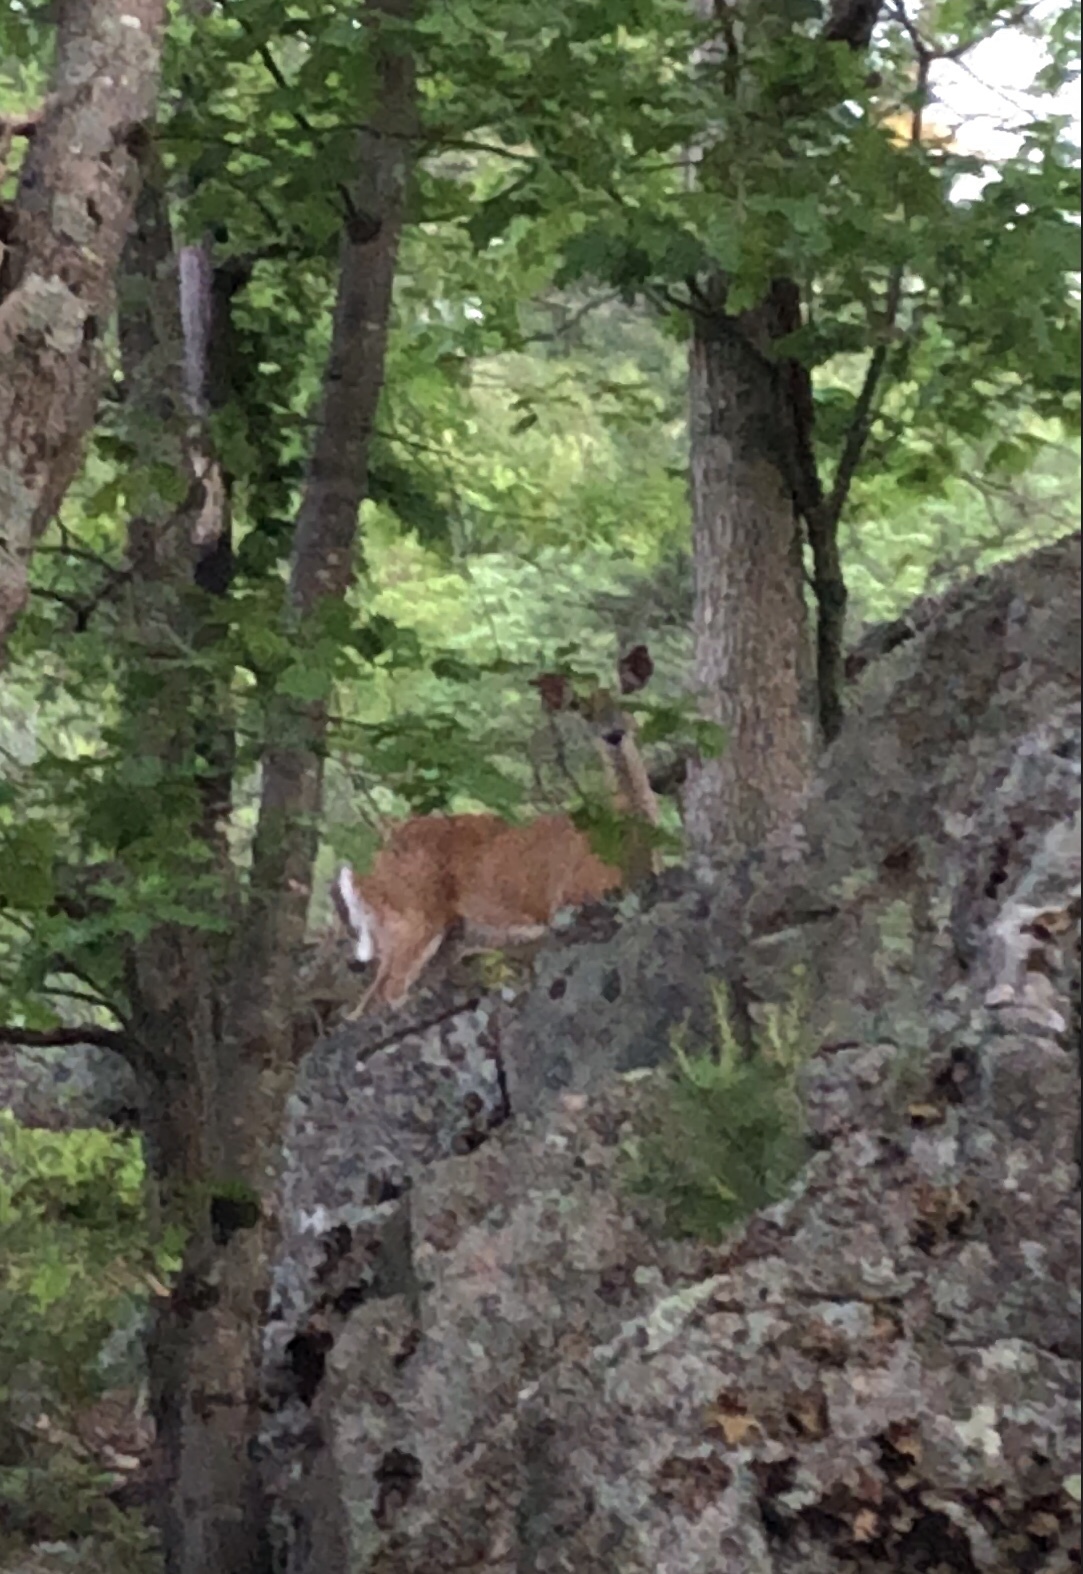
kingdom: Animalia
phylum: Chordata
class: Mammalia
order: Artiodactyla
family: Cervidae
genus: Odocoileus
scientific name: Odocoileus virginianus
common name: White-tailed deer
